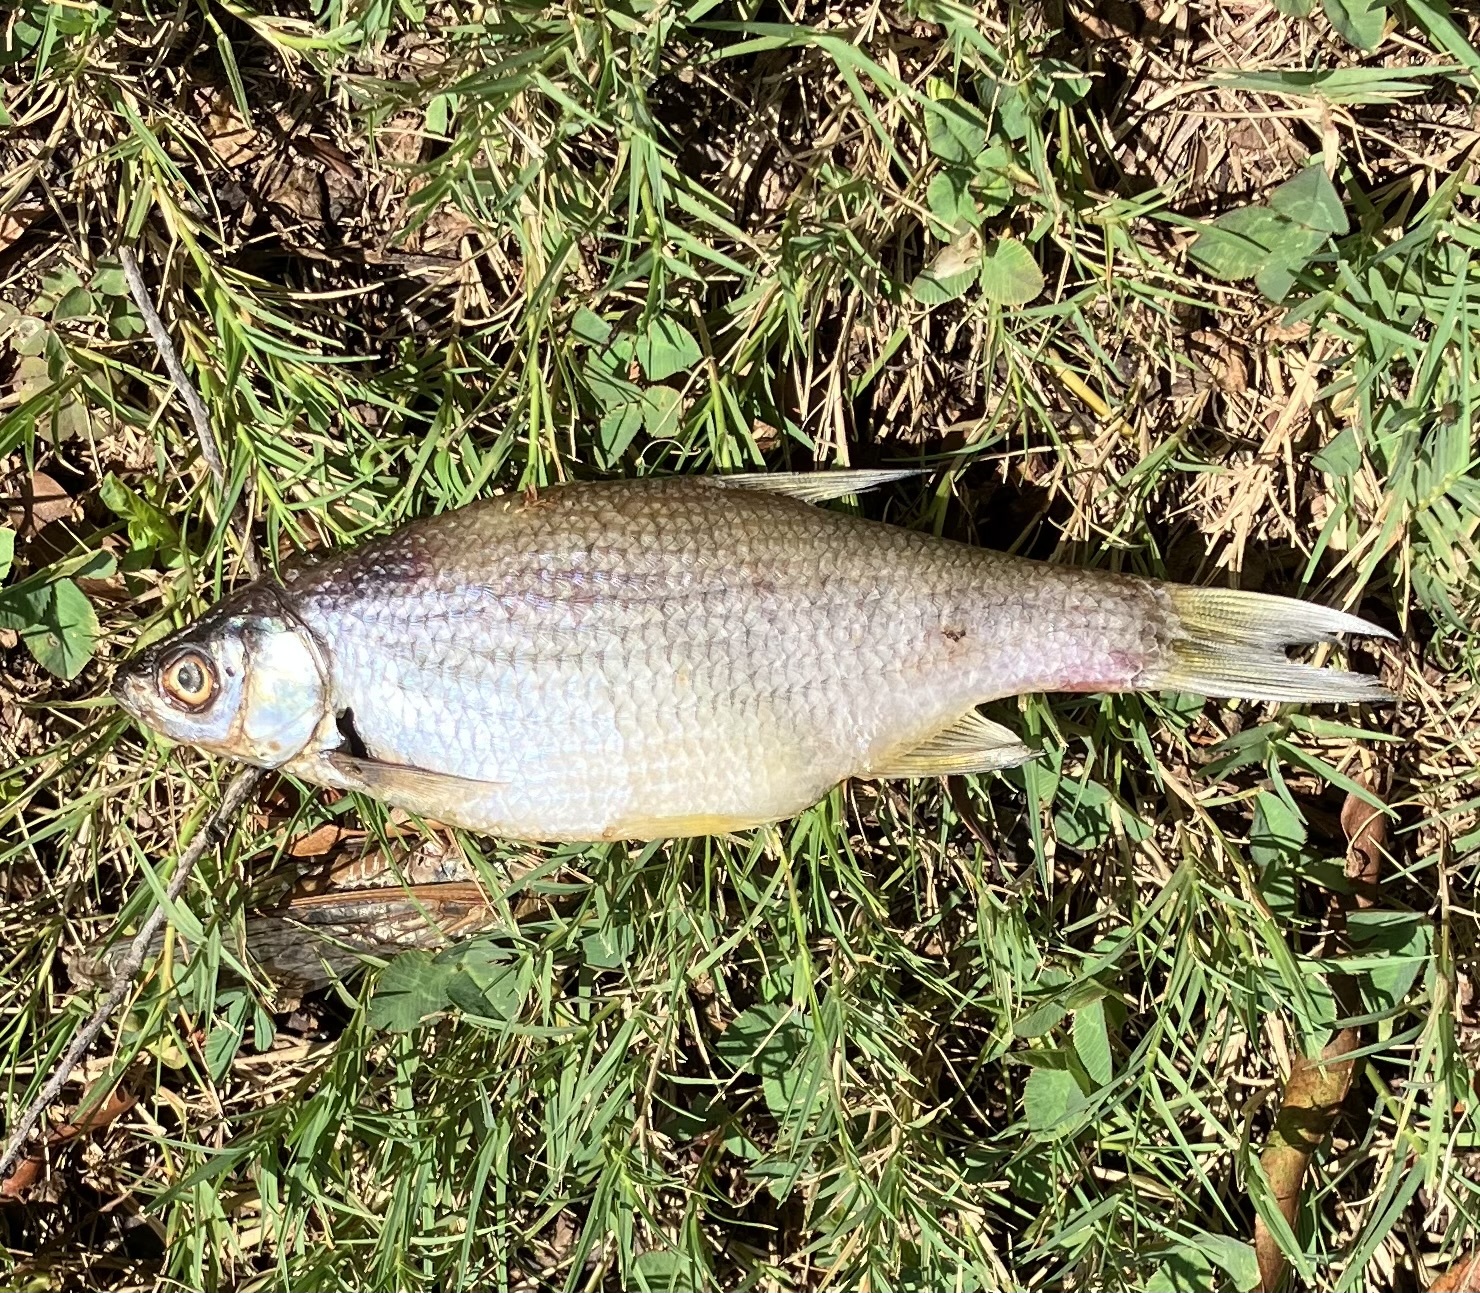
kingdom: Animalia
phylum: Chordata
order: Cypriniformes
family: Cyprinidae
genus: Notemigonus
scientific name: Notemigonus crysoleucas
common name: Golden shiner
